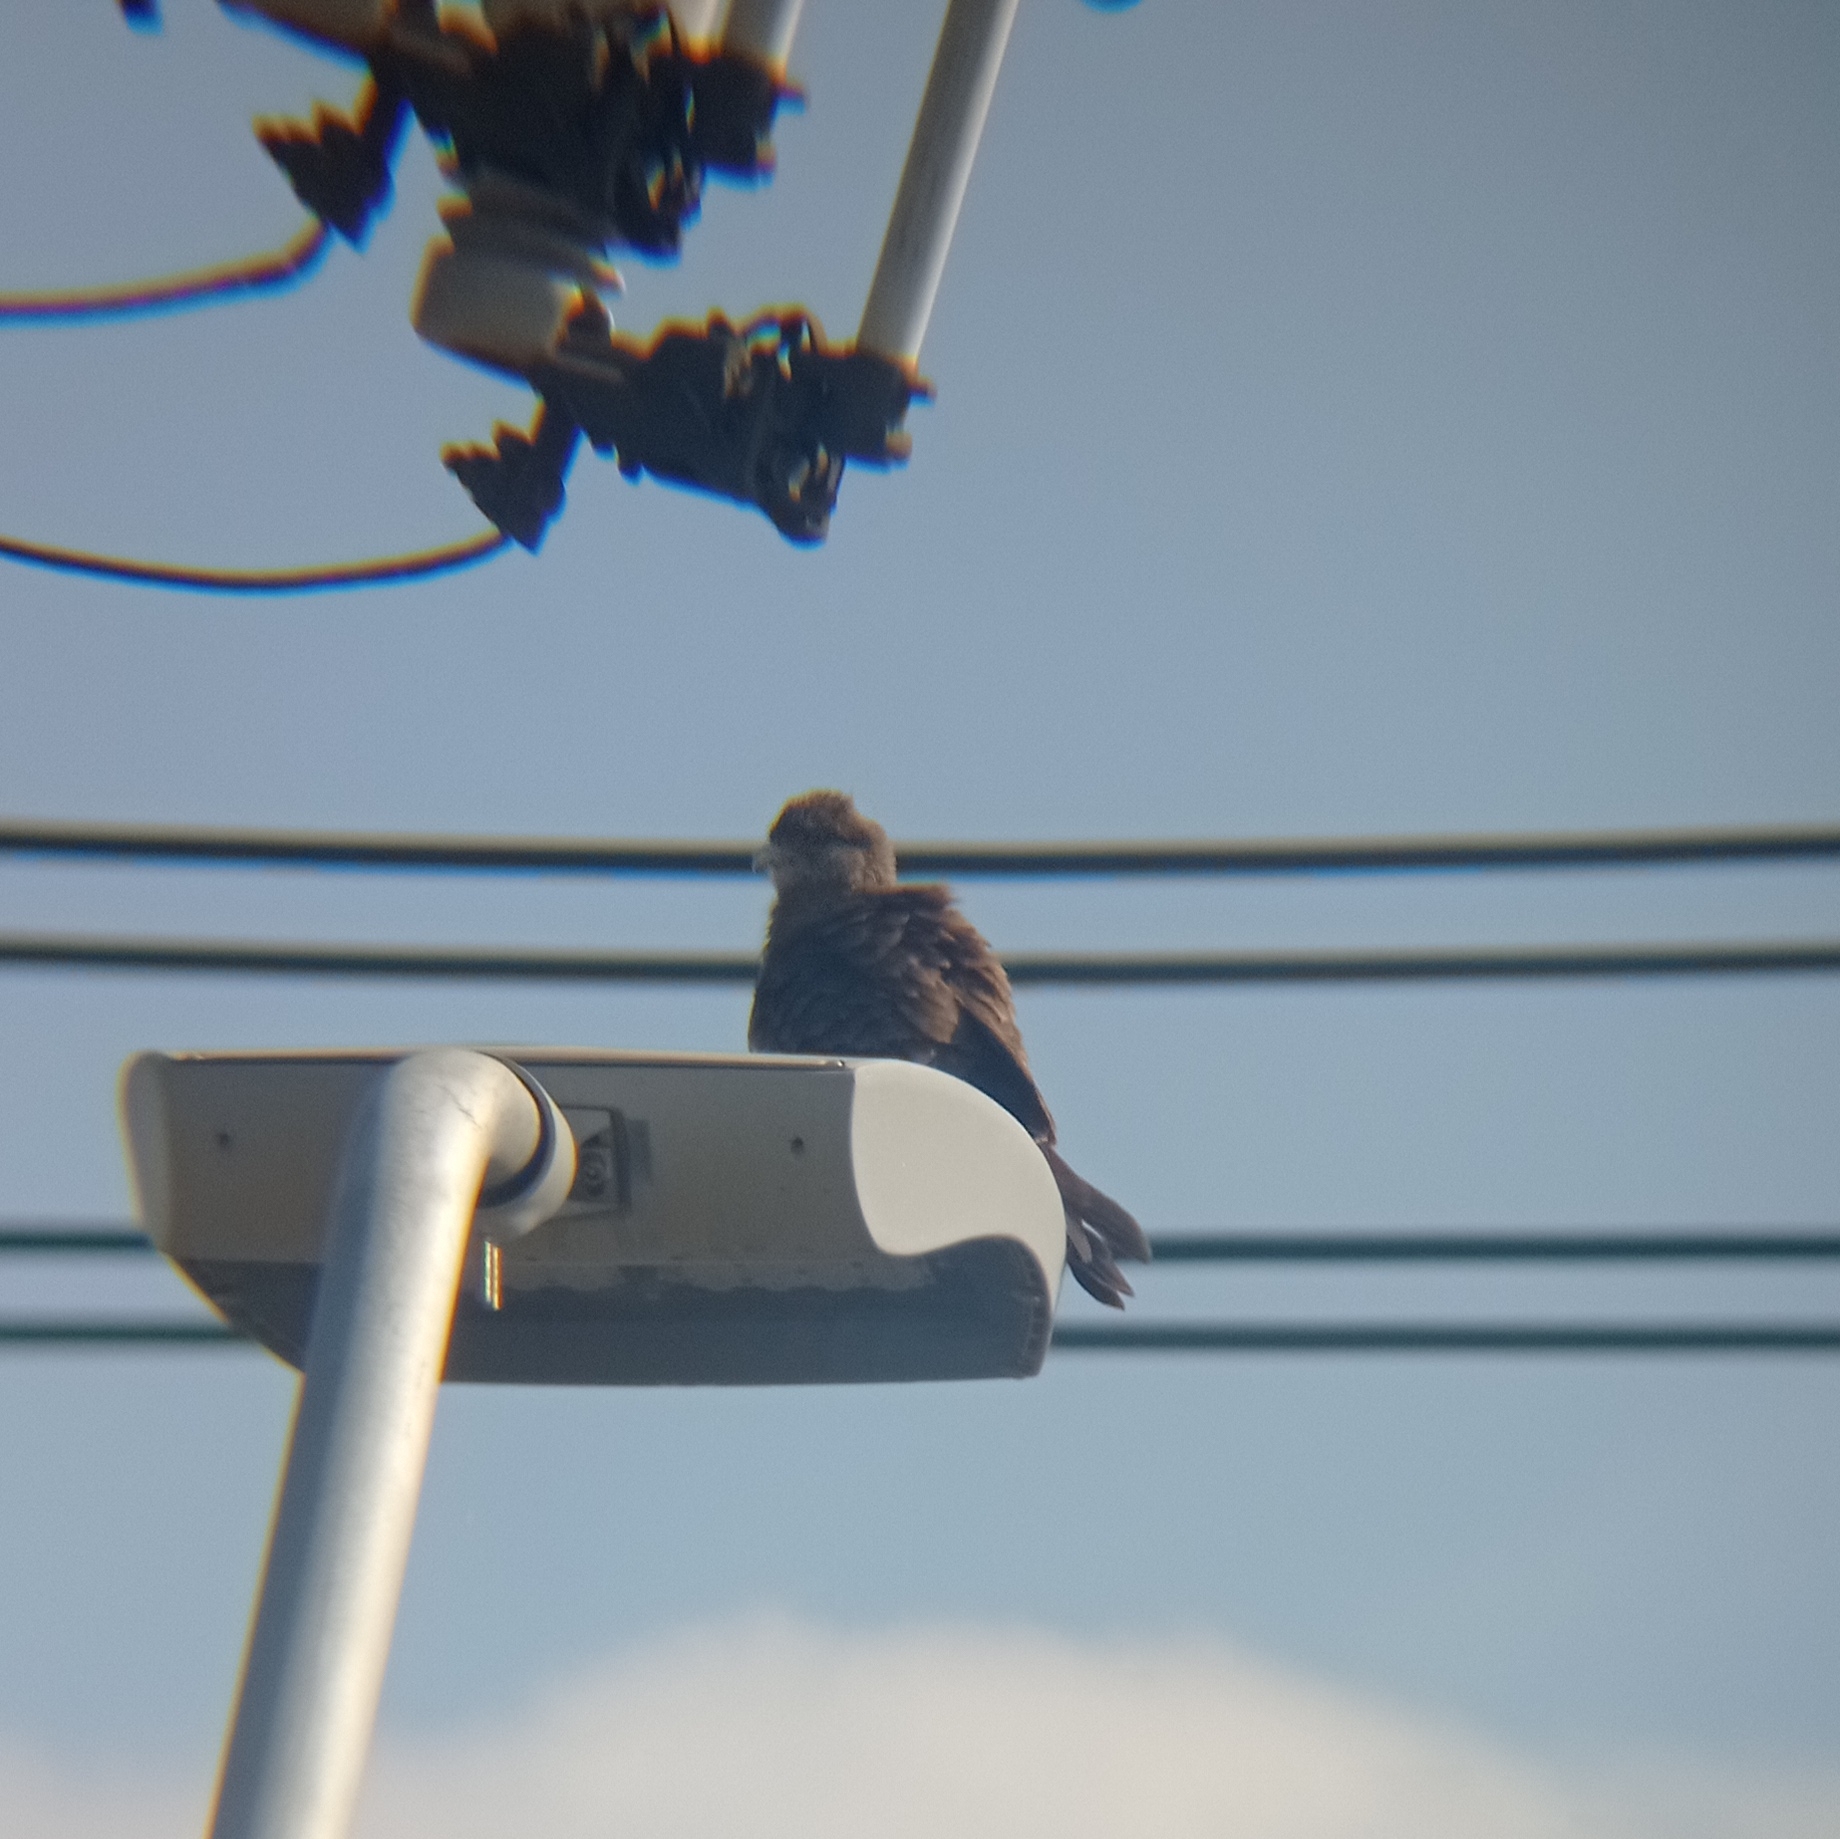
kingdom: Animalia
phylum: Chordata
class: Aves
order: Falconiformes
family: Falconidae
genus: Daptrius
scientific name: Daptrius
